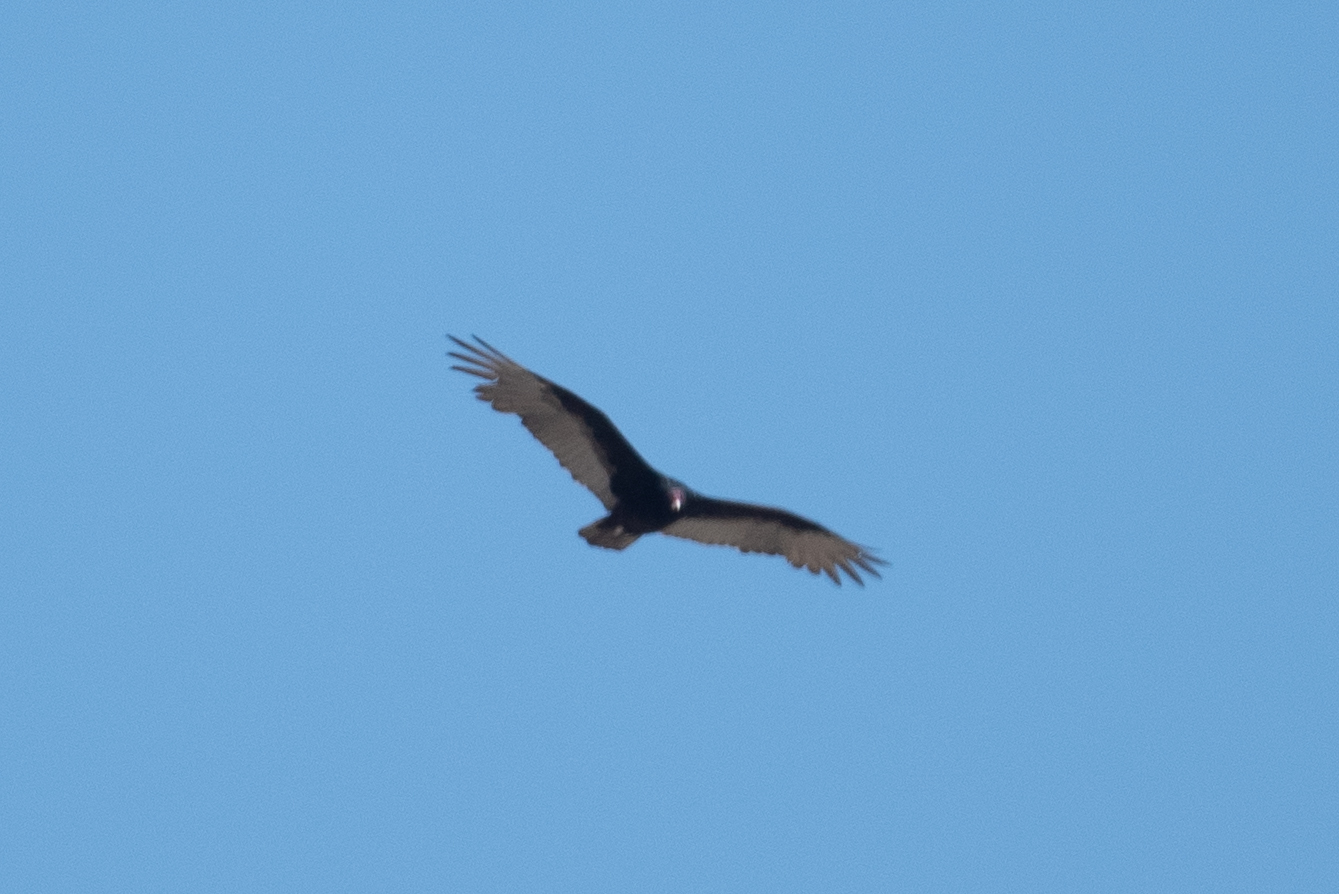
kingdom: Animalia
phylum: Chordata
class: Aves
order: Accipitriformes
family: Cathartidae
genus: Cathartes
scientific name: Cathartes aura
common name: Turkey vulture
